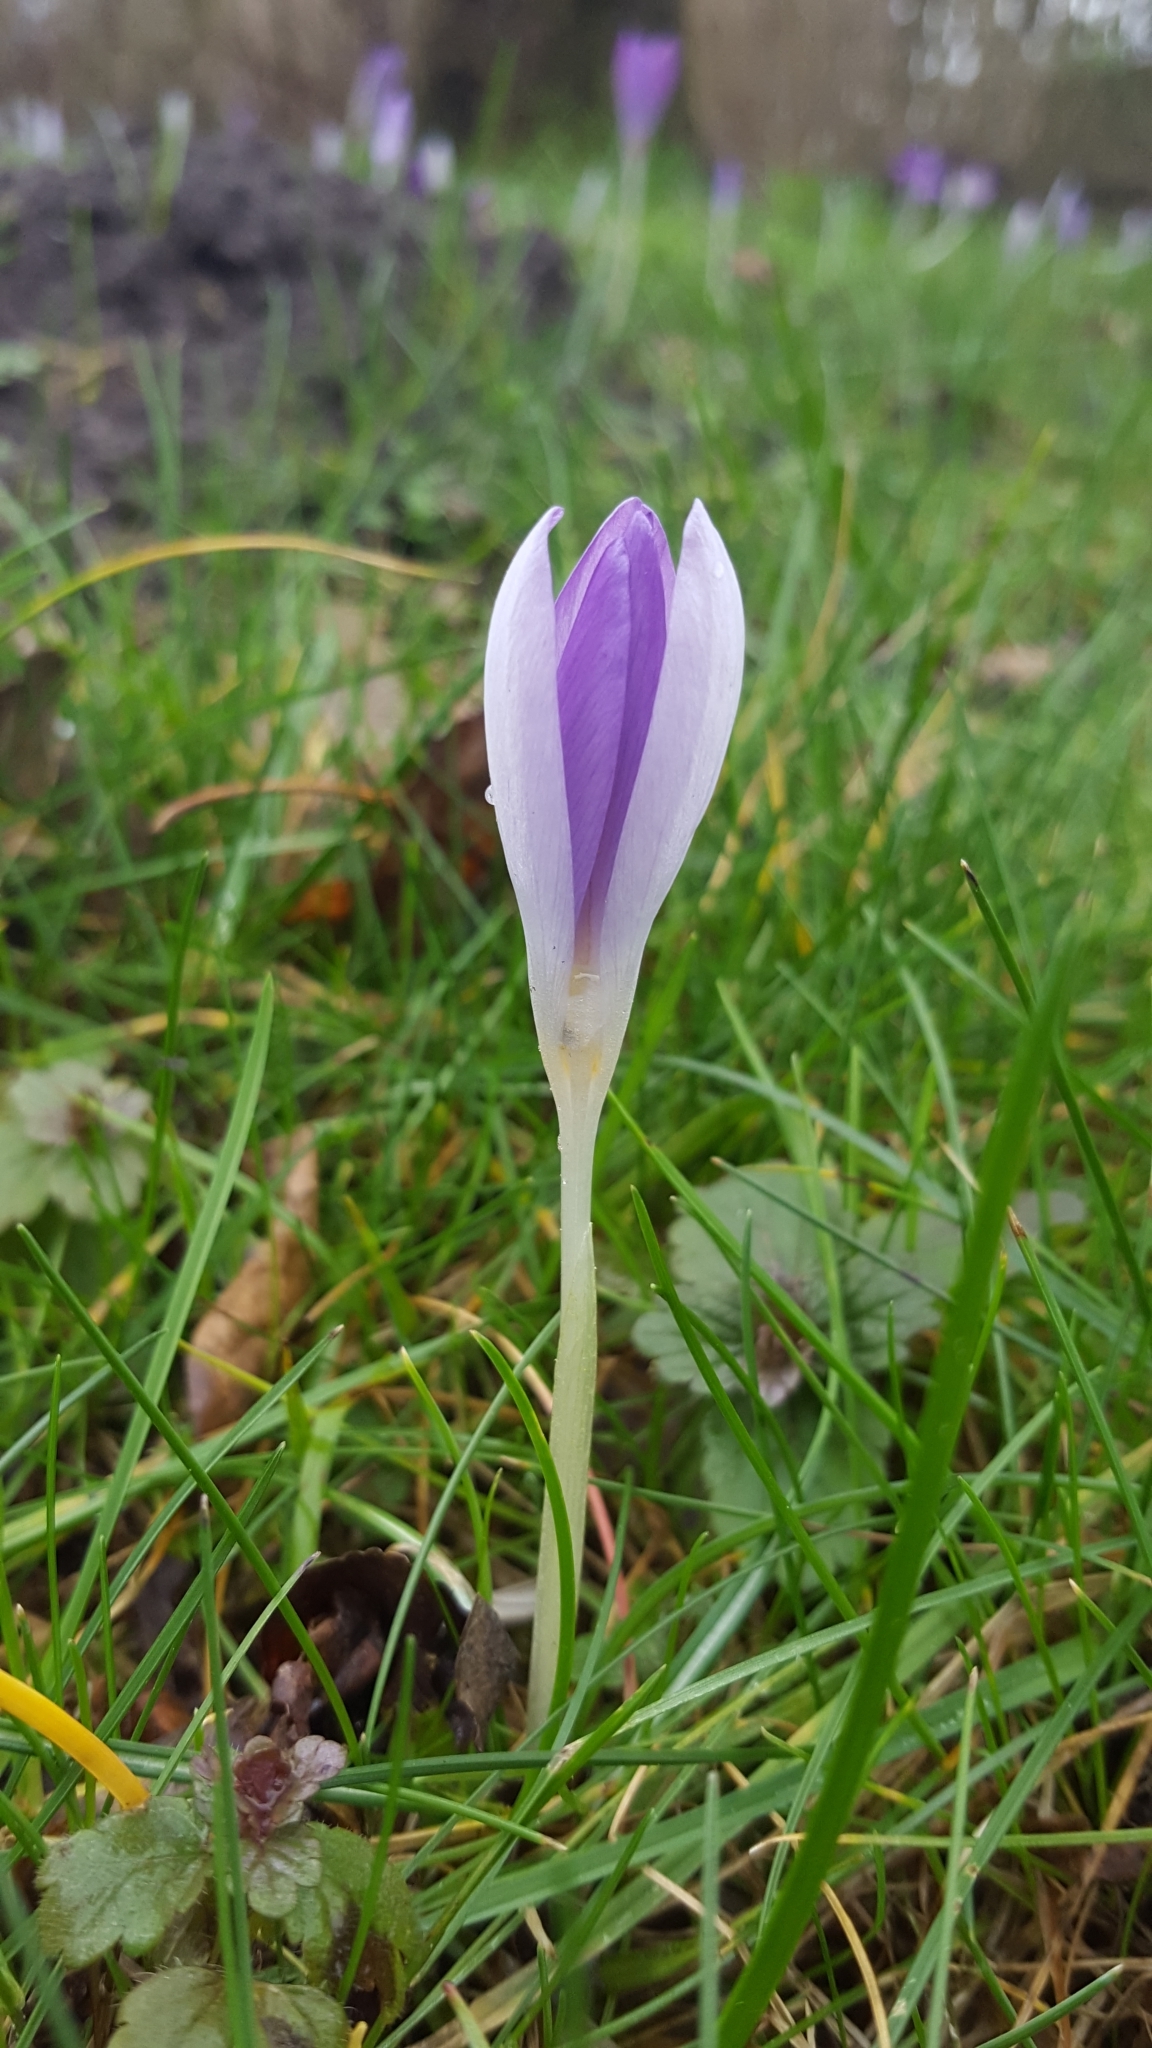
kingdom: Plantae
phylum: Tracheophyta
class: Liliopsida
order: Asparagales
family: Iridaceae
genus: Crocus
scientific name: Crocus tommasinianus
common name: Early crocus
